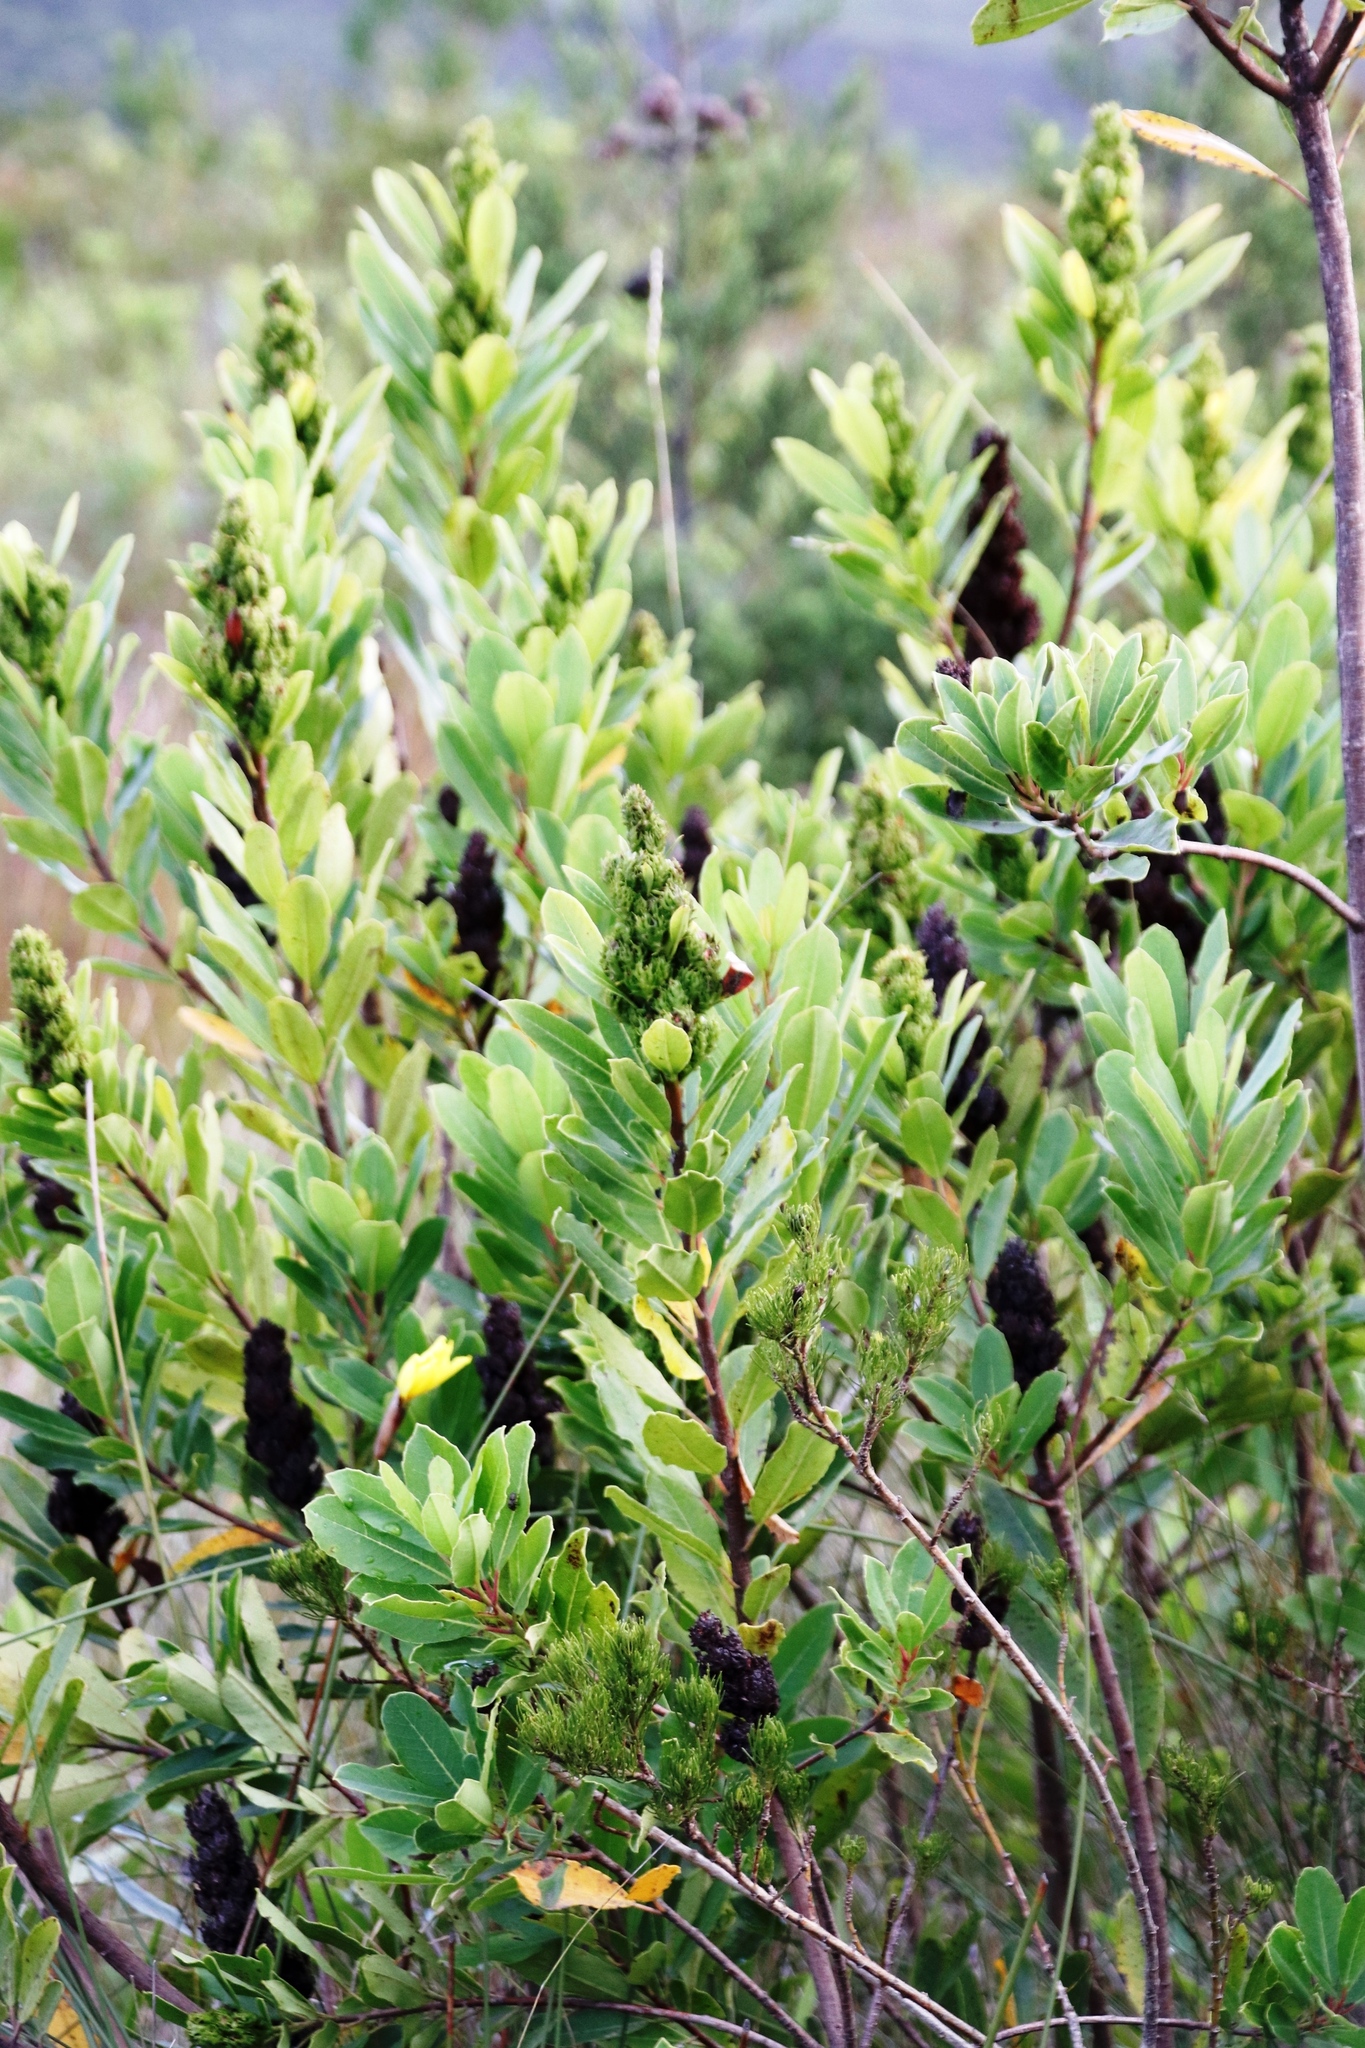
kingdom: Plantae
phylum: Tracheophyta
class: Magnoliopsida
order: Sapindales
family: Anacardiaceae
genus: Laurophyllus
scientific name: Laurophyllus capensis
